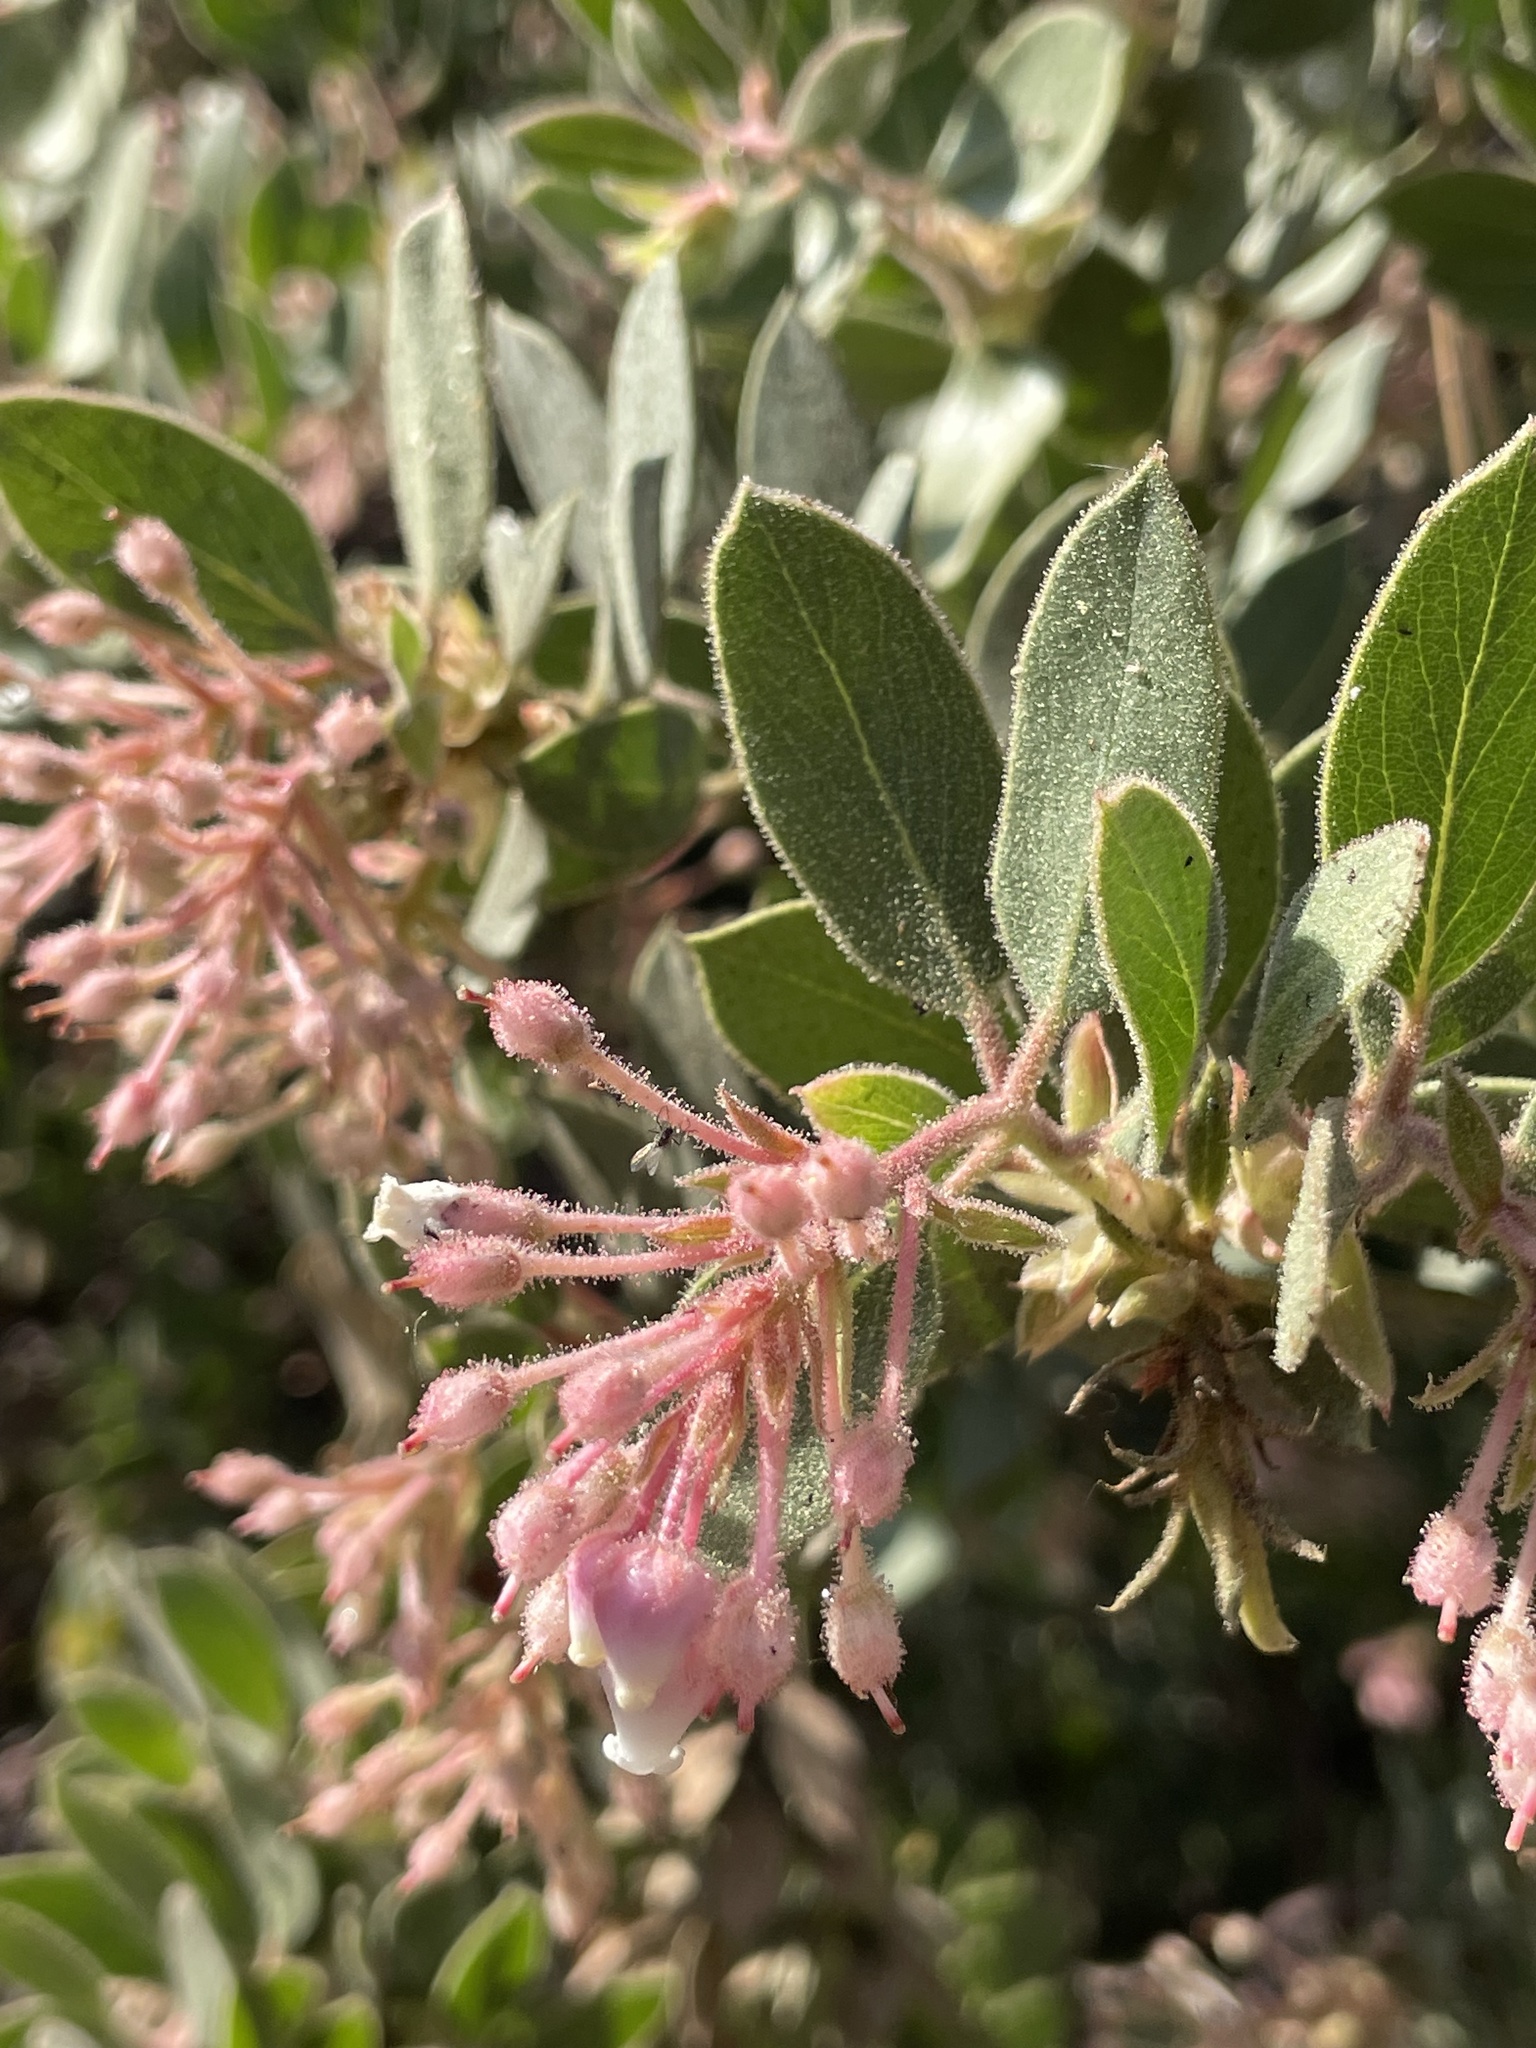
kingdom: Plantae
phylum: Tracheophyta
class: Magnoliopsida
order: Ericales
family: Ericaceae
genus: Arctostaphylos
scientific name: Arctostaphylos pringlei
